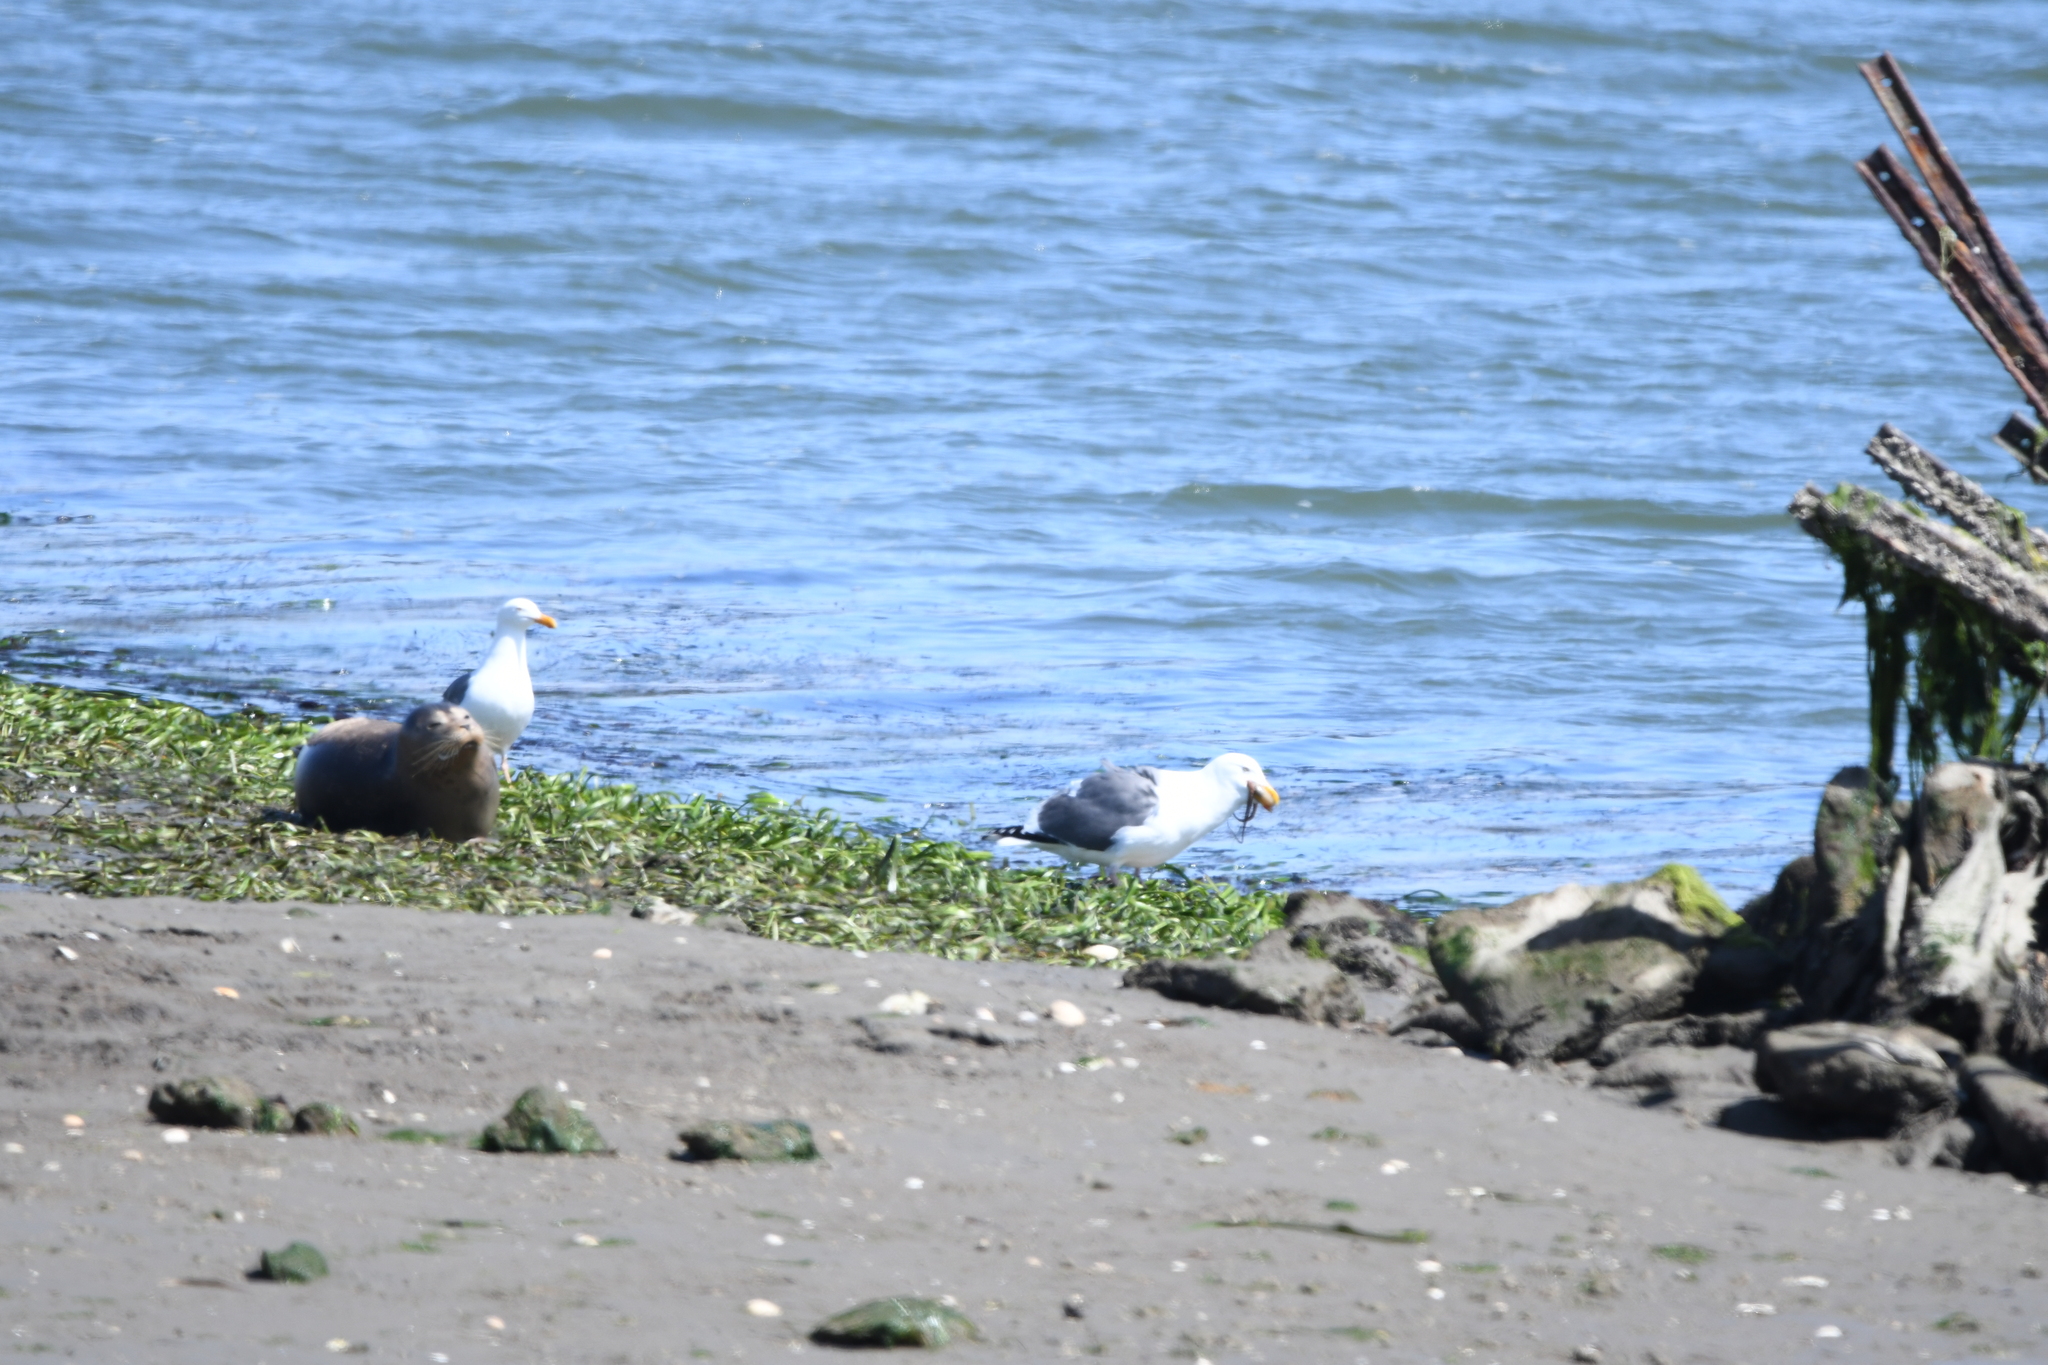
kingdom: Animalia
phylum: Chordata
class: Aves
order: Charadriiformes
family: Laridae
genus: Larus
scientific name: Larus occidentalis
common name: Western gull
